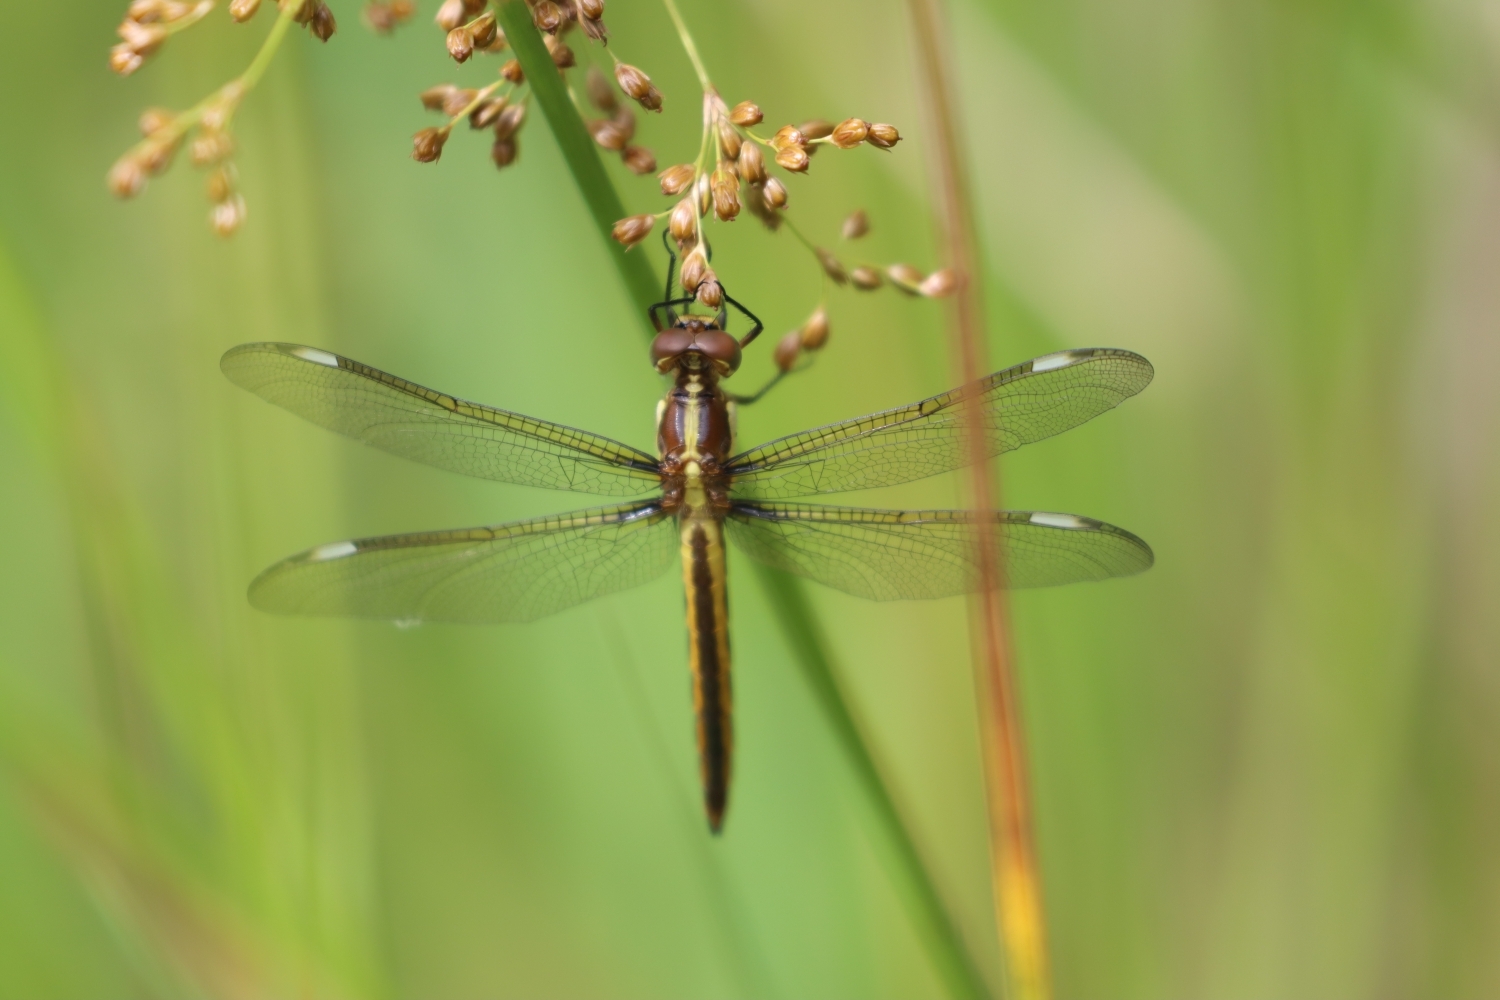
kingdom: Animalia
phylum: Arthropoda
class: Insecta
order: Odonata
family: Libellulidae
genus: Libellula
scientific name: Libellula cyanea
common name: Spangled skimmer
